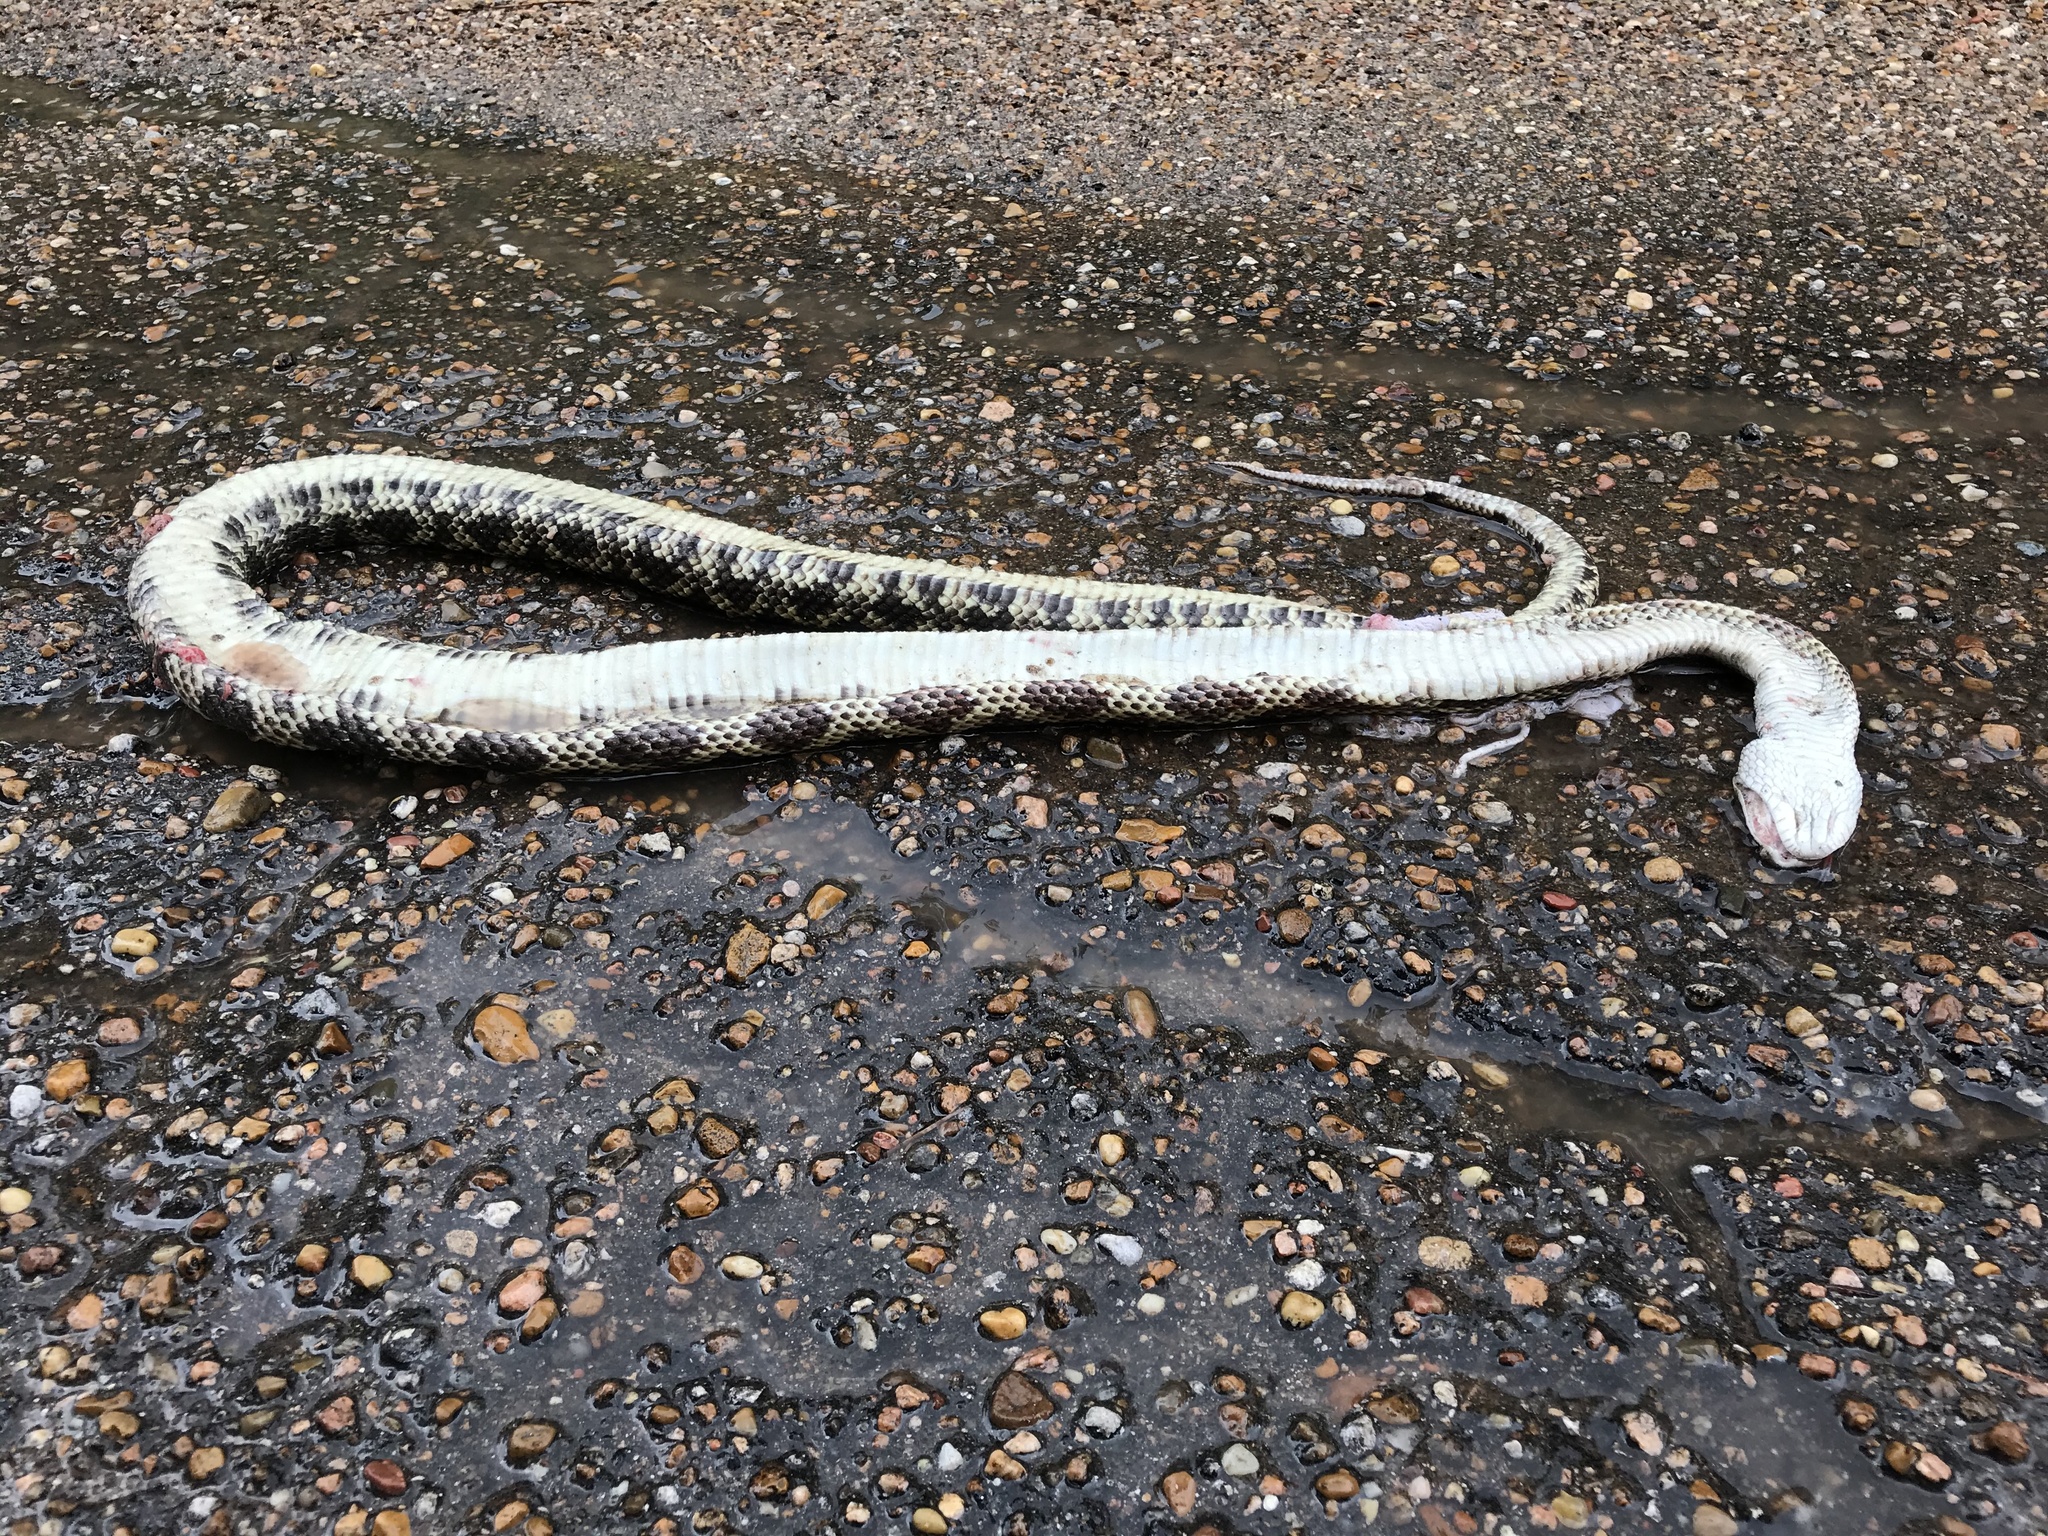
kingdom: Animalia
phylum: Chordata
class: Squamata
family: Colubridae
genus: Pantherophis
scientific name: Pantherophis obsoletus
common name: Black rat snake
